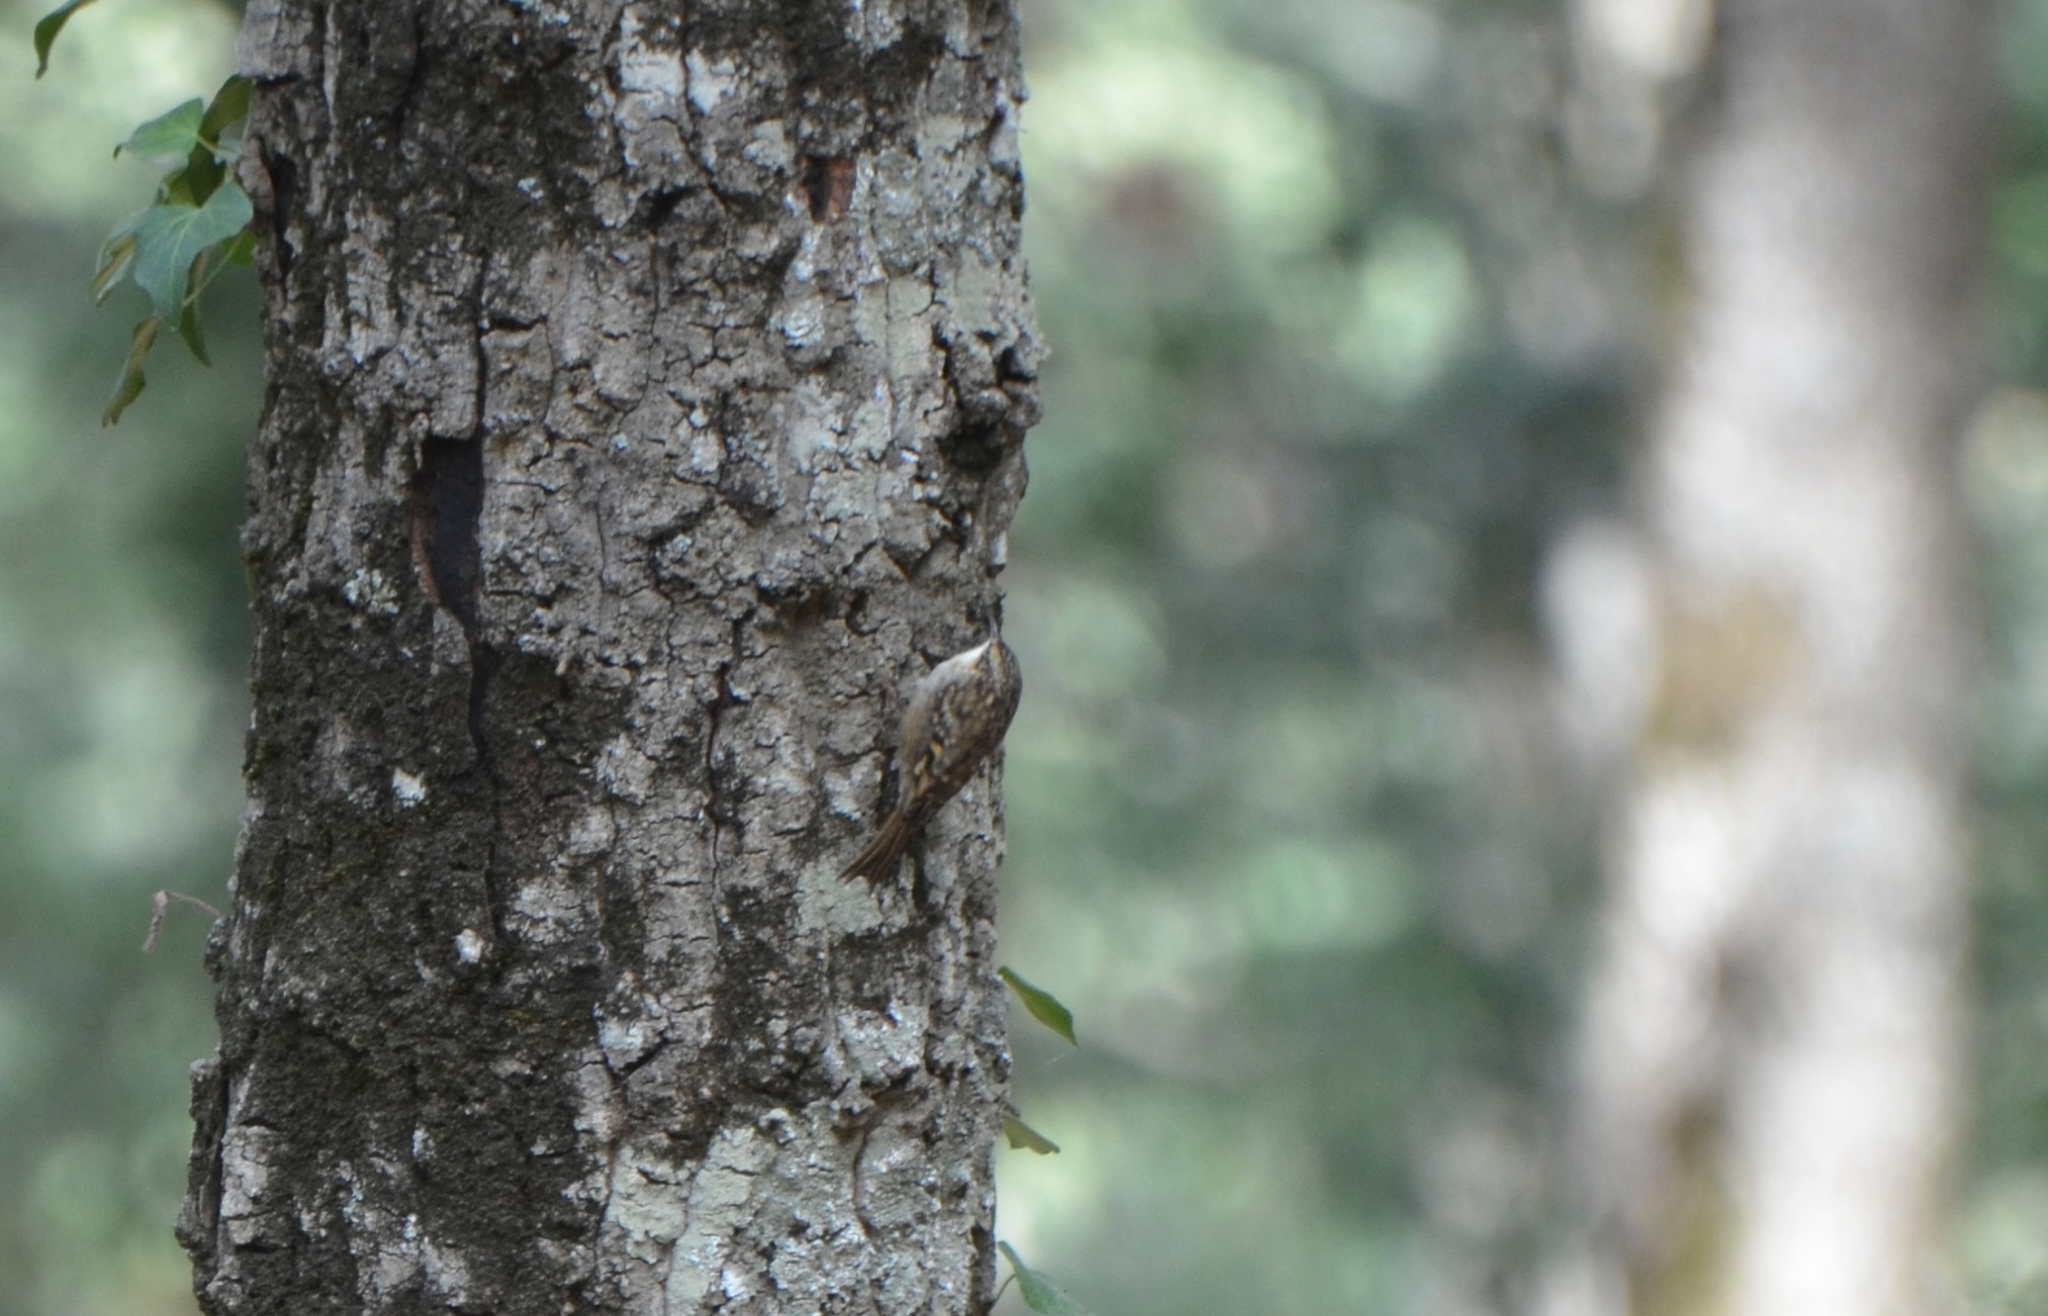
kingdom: Animalia
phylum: Chordata
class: Aves
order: Passeriformes
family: Certhiidae
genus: Certhia
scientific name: Certhia brachydactyla
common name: Short-toed treecreeper
